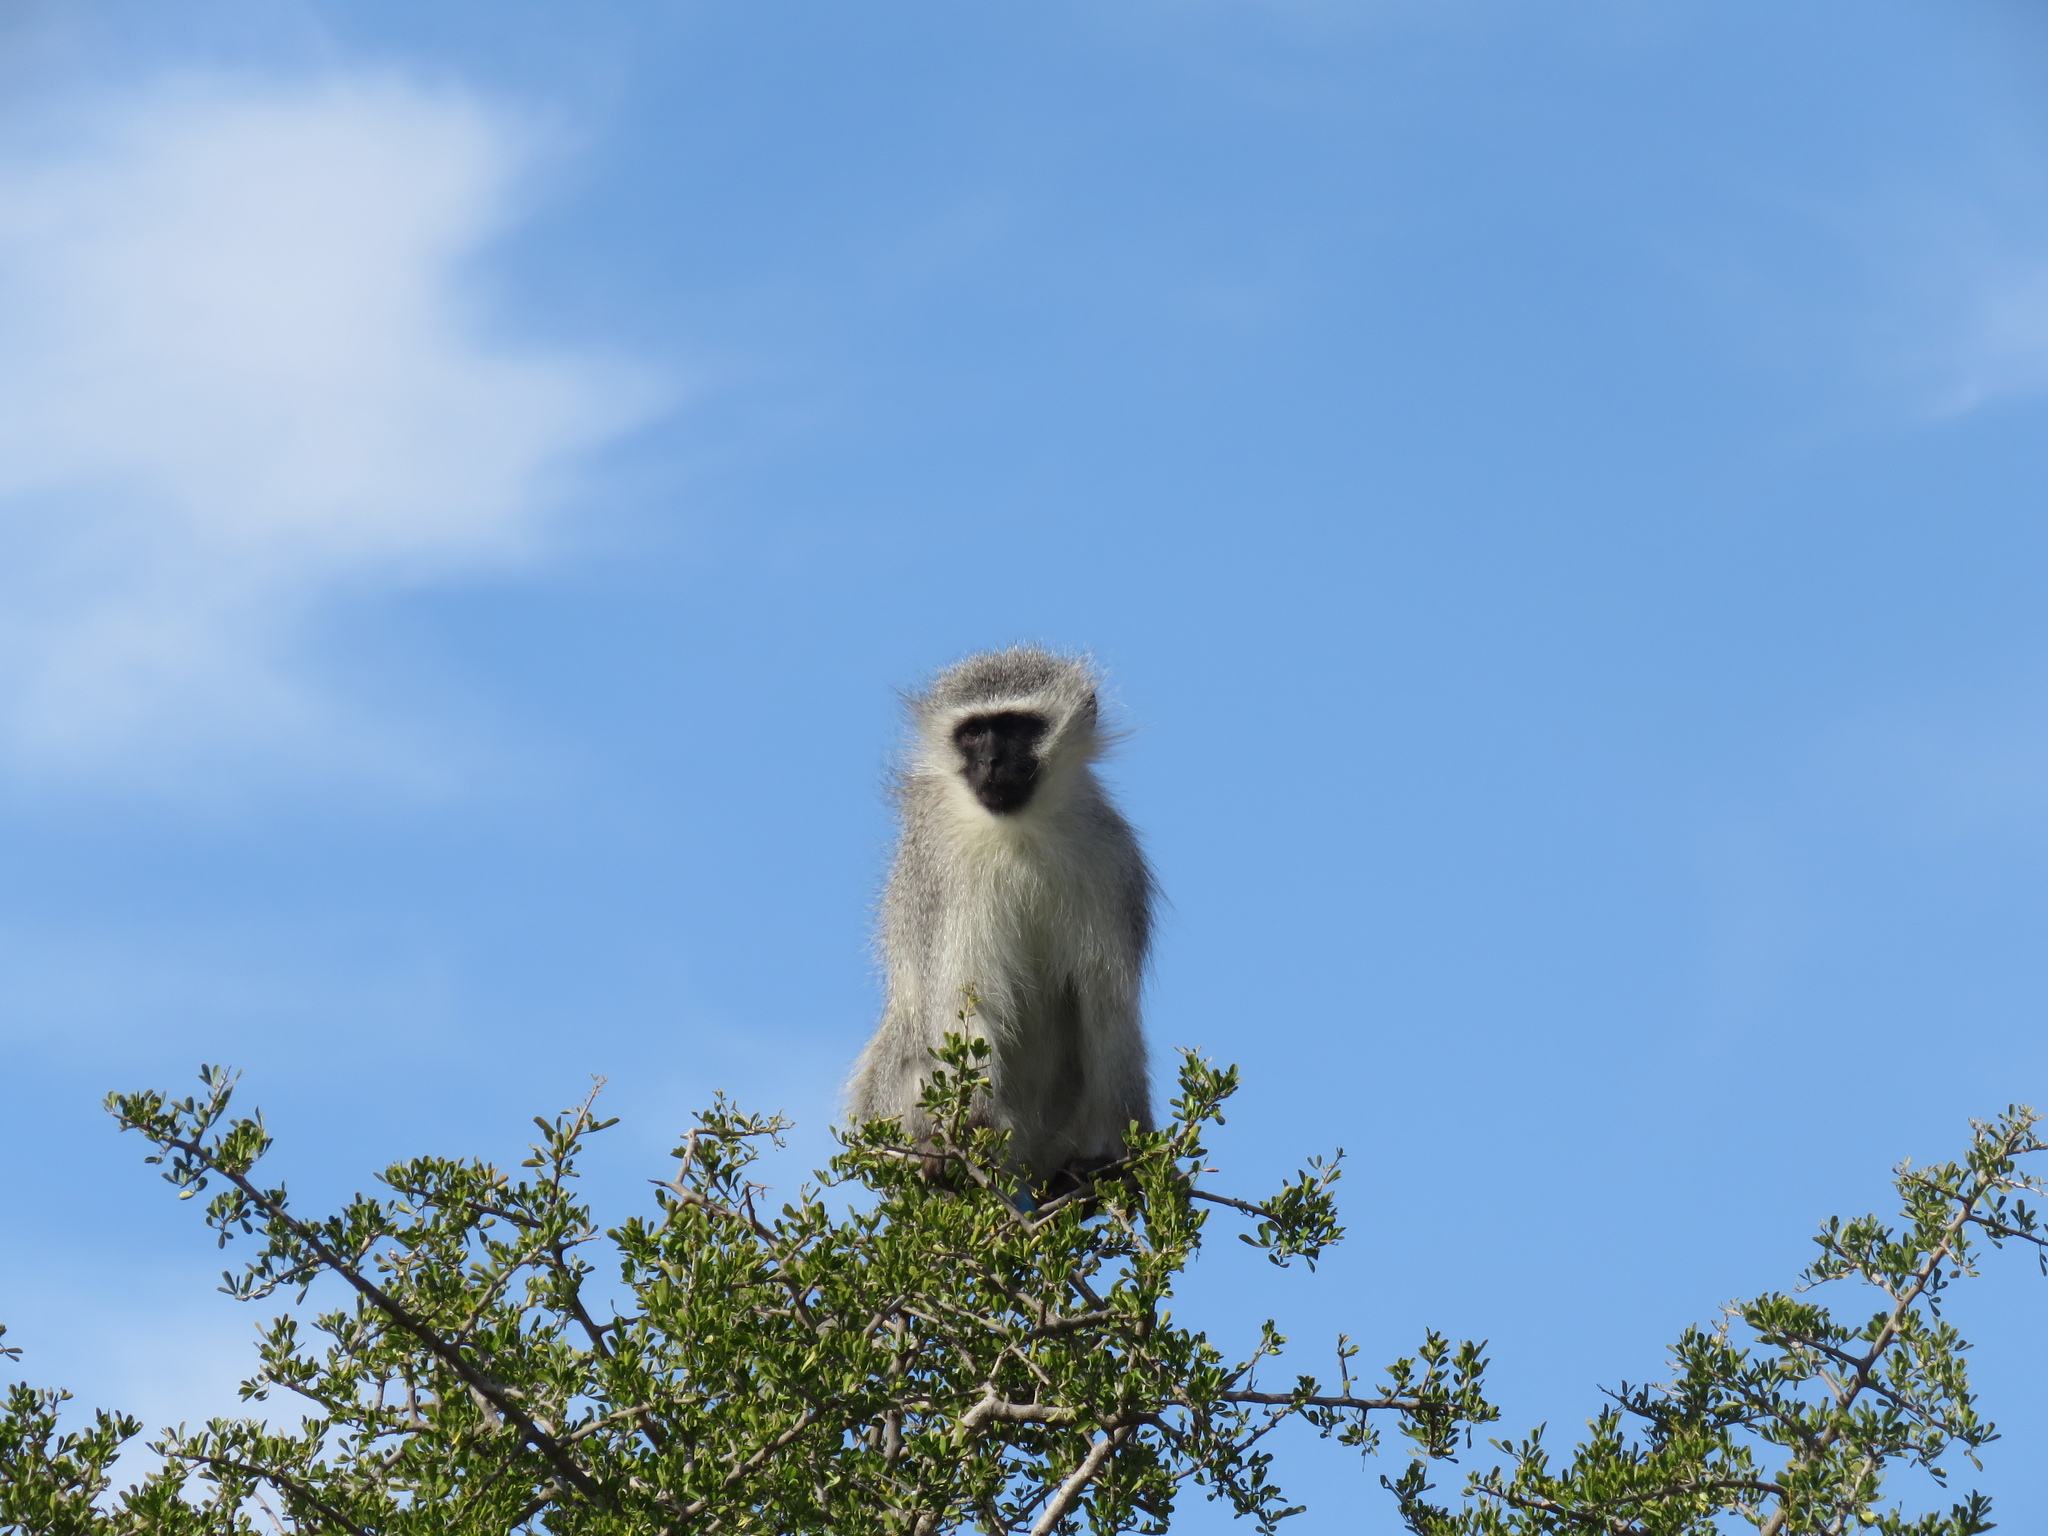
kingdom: Animalia
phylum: Chordata
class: Mammalia
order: Primates
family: Cercopithecidae
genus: Chlorocebus
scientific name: Chlorocebus pygerythrus
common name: Vervet monkey
